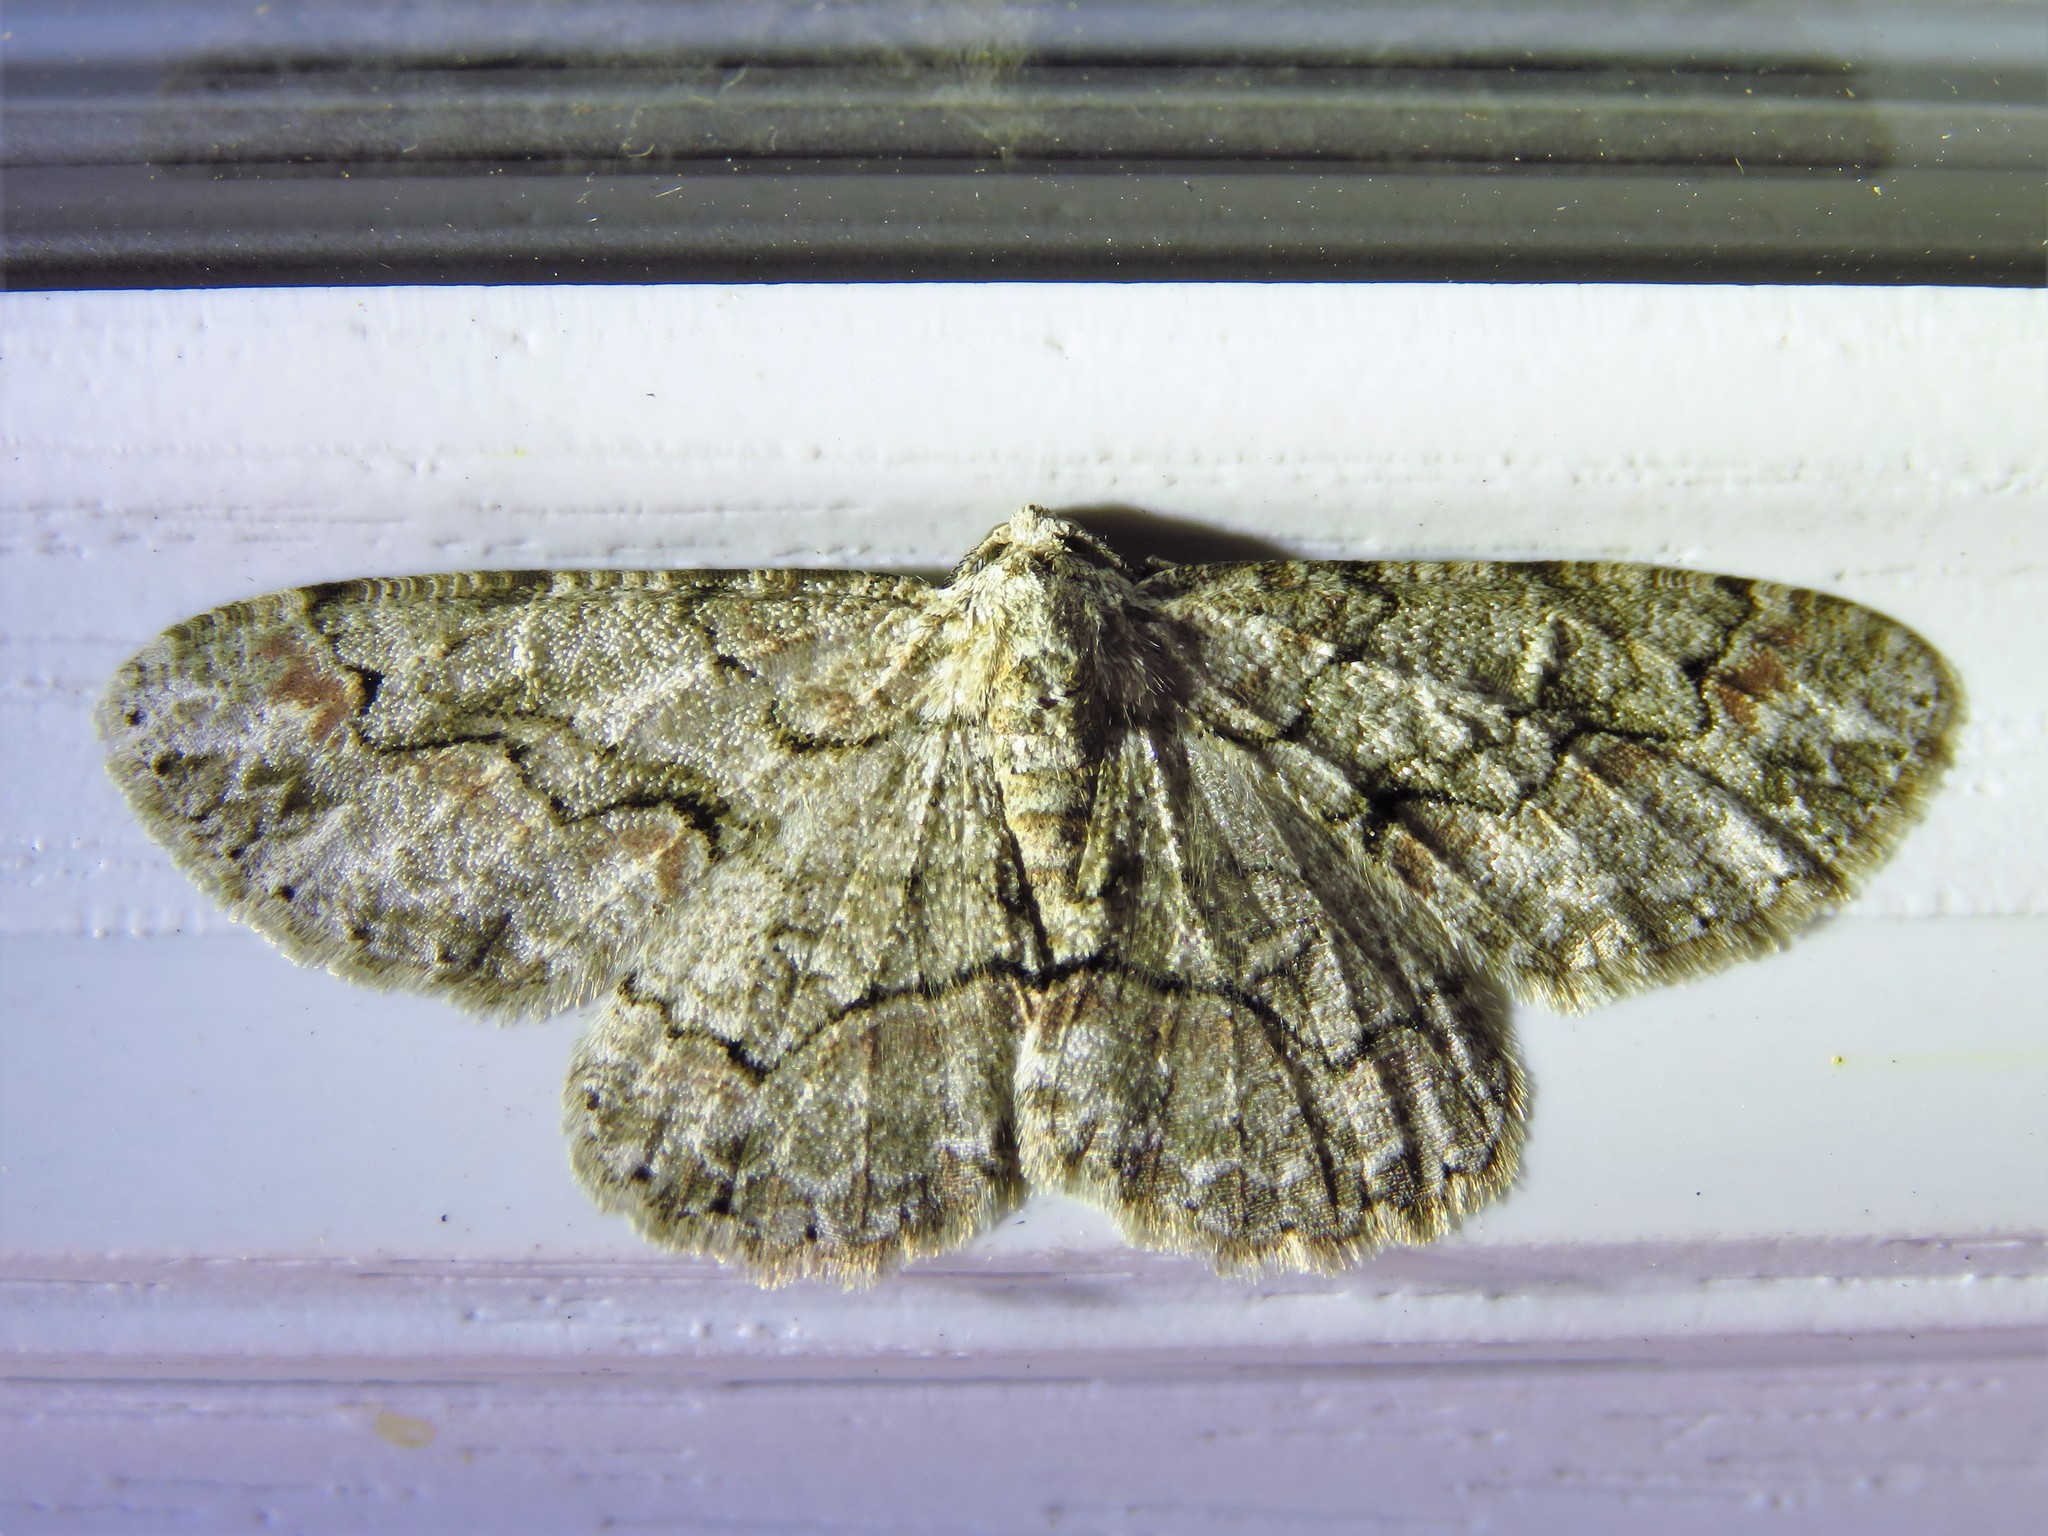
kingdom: Animalia
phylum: Arthropoda
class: Insecta
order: Lepidoptera
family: Geometridae
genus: Iridopsis
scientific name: Iridopsis defectaria
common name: Brown-shaded gray
